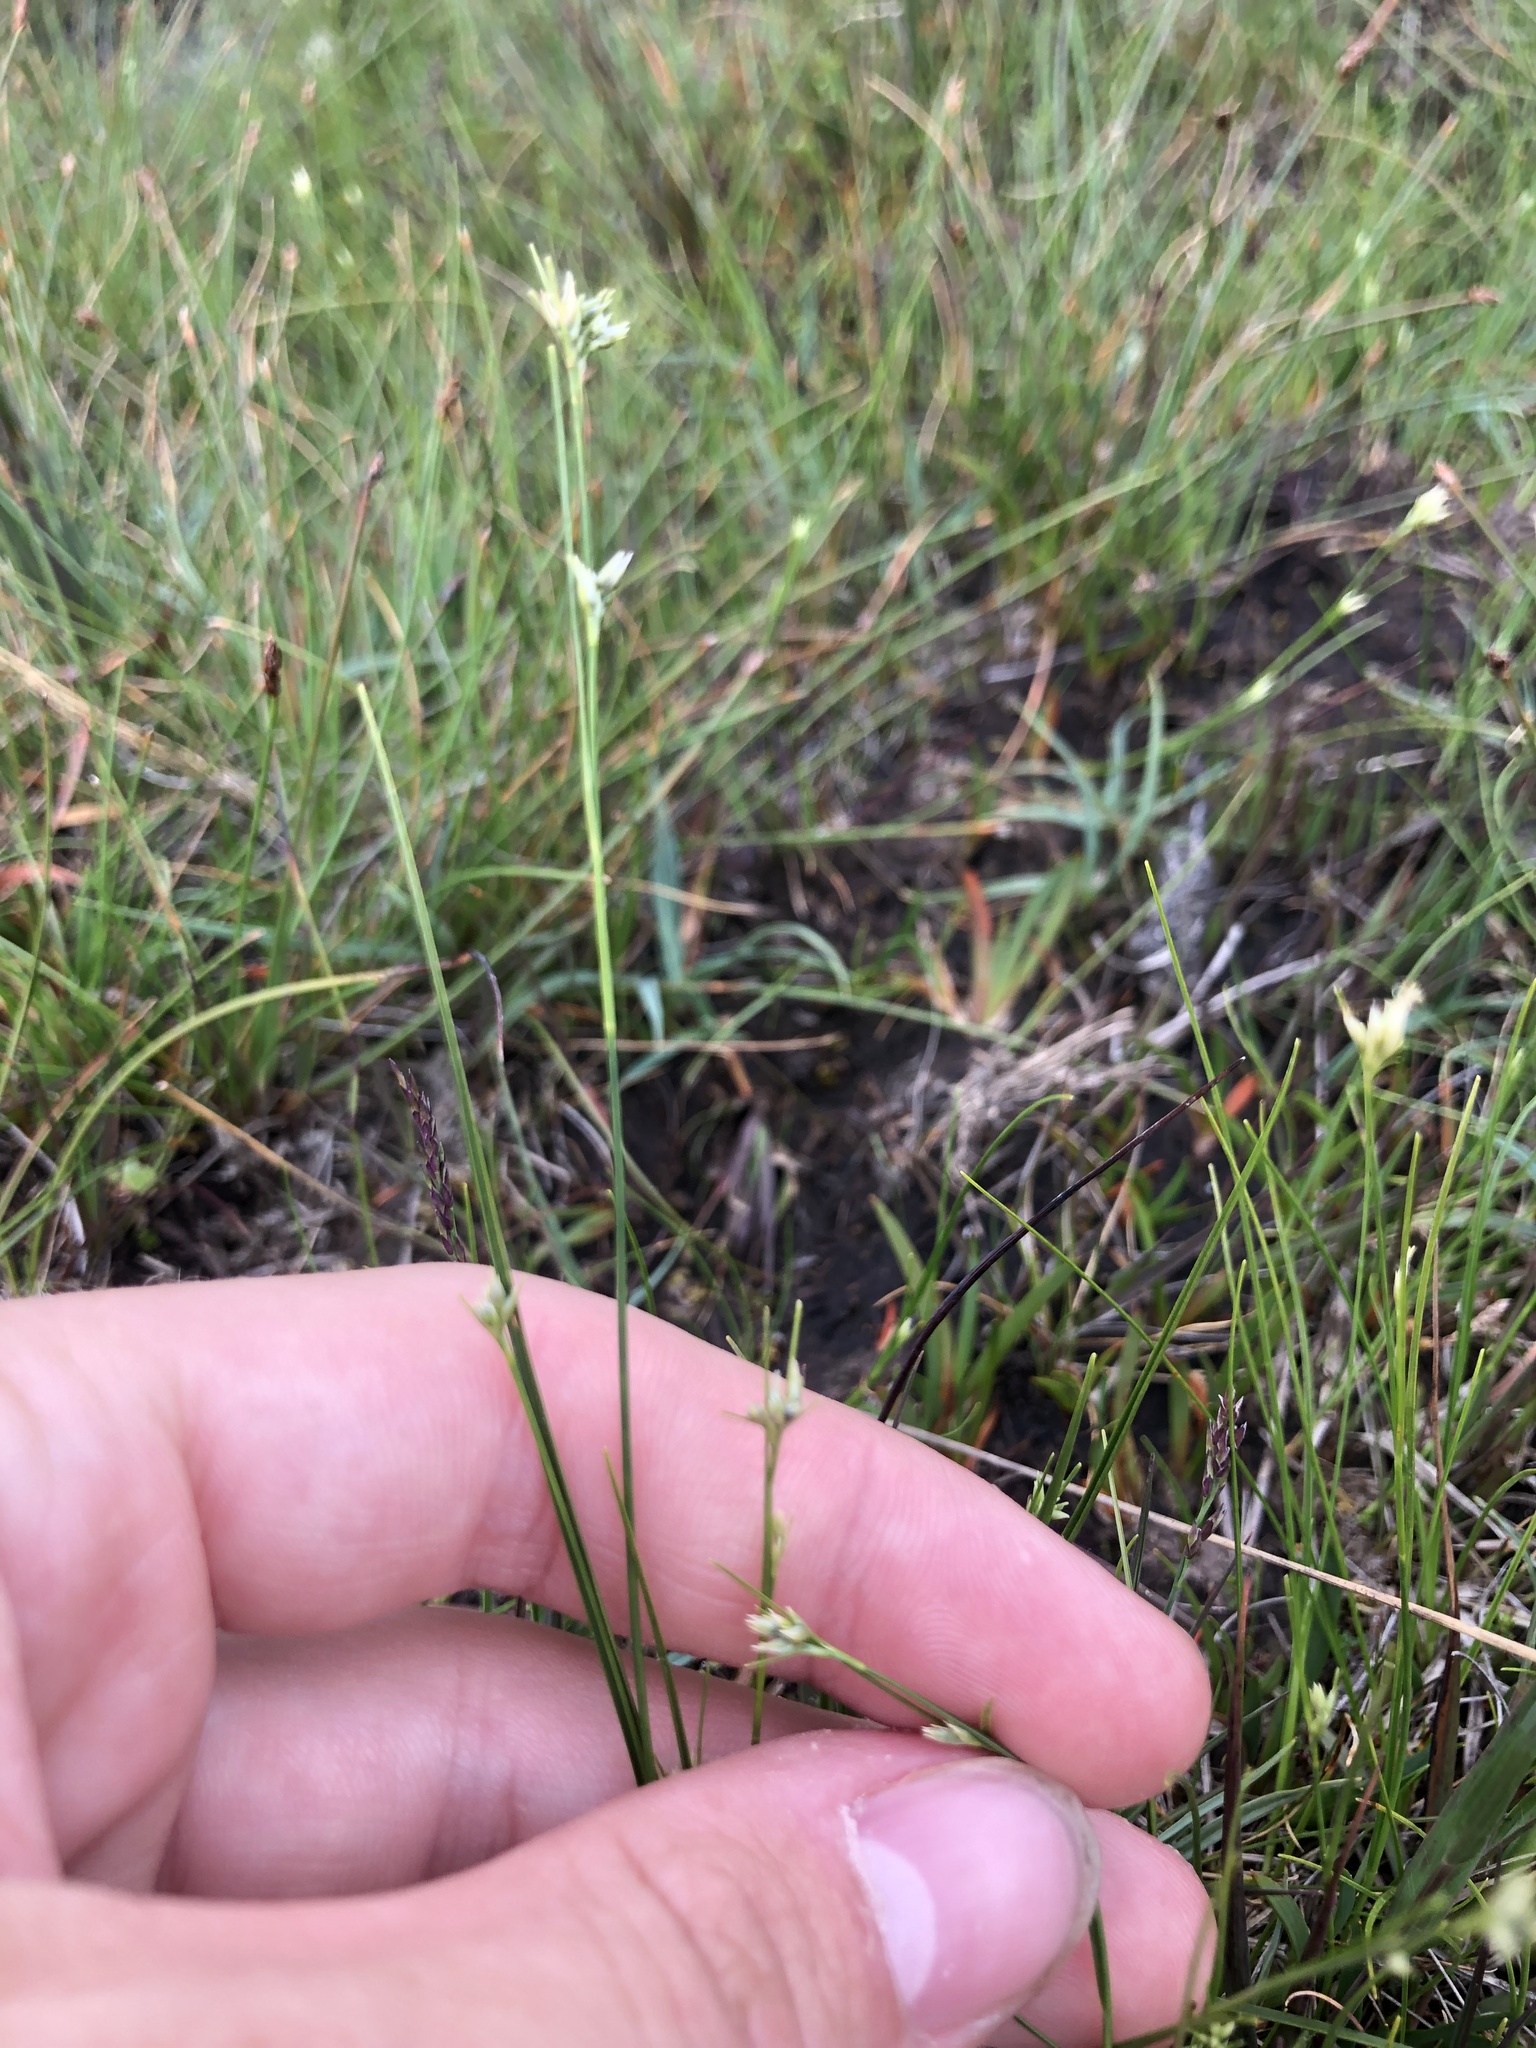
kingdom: Plantae
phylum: Tracheophyta
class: Liliopsida
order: Poales
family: Cyperaceae
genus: Rhynchospora
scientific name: Rhynchospora alba
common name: White beak-sedge
